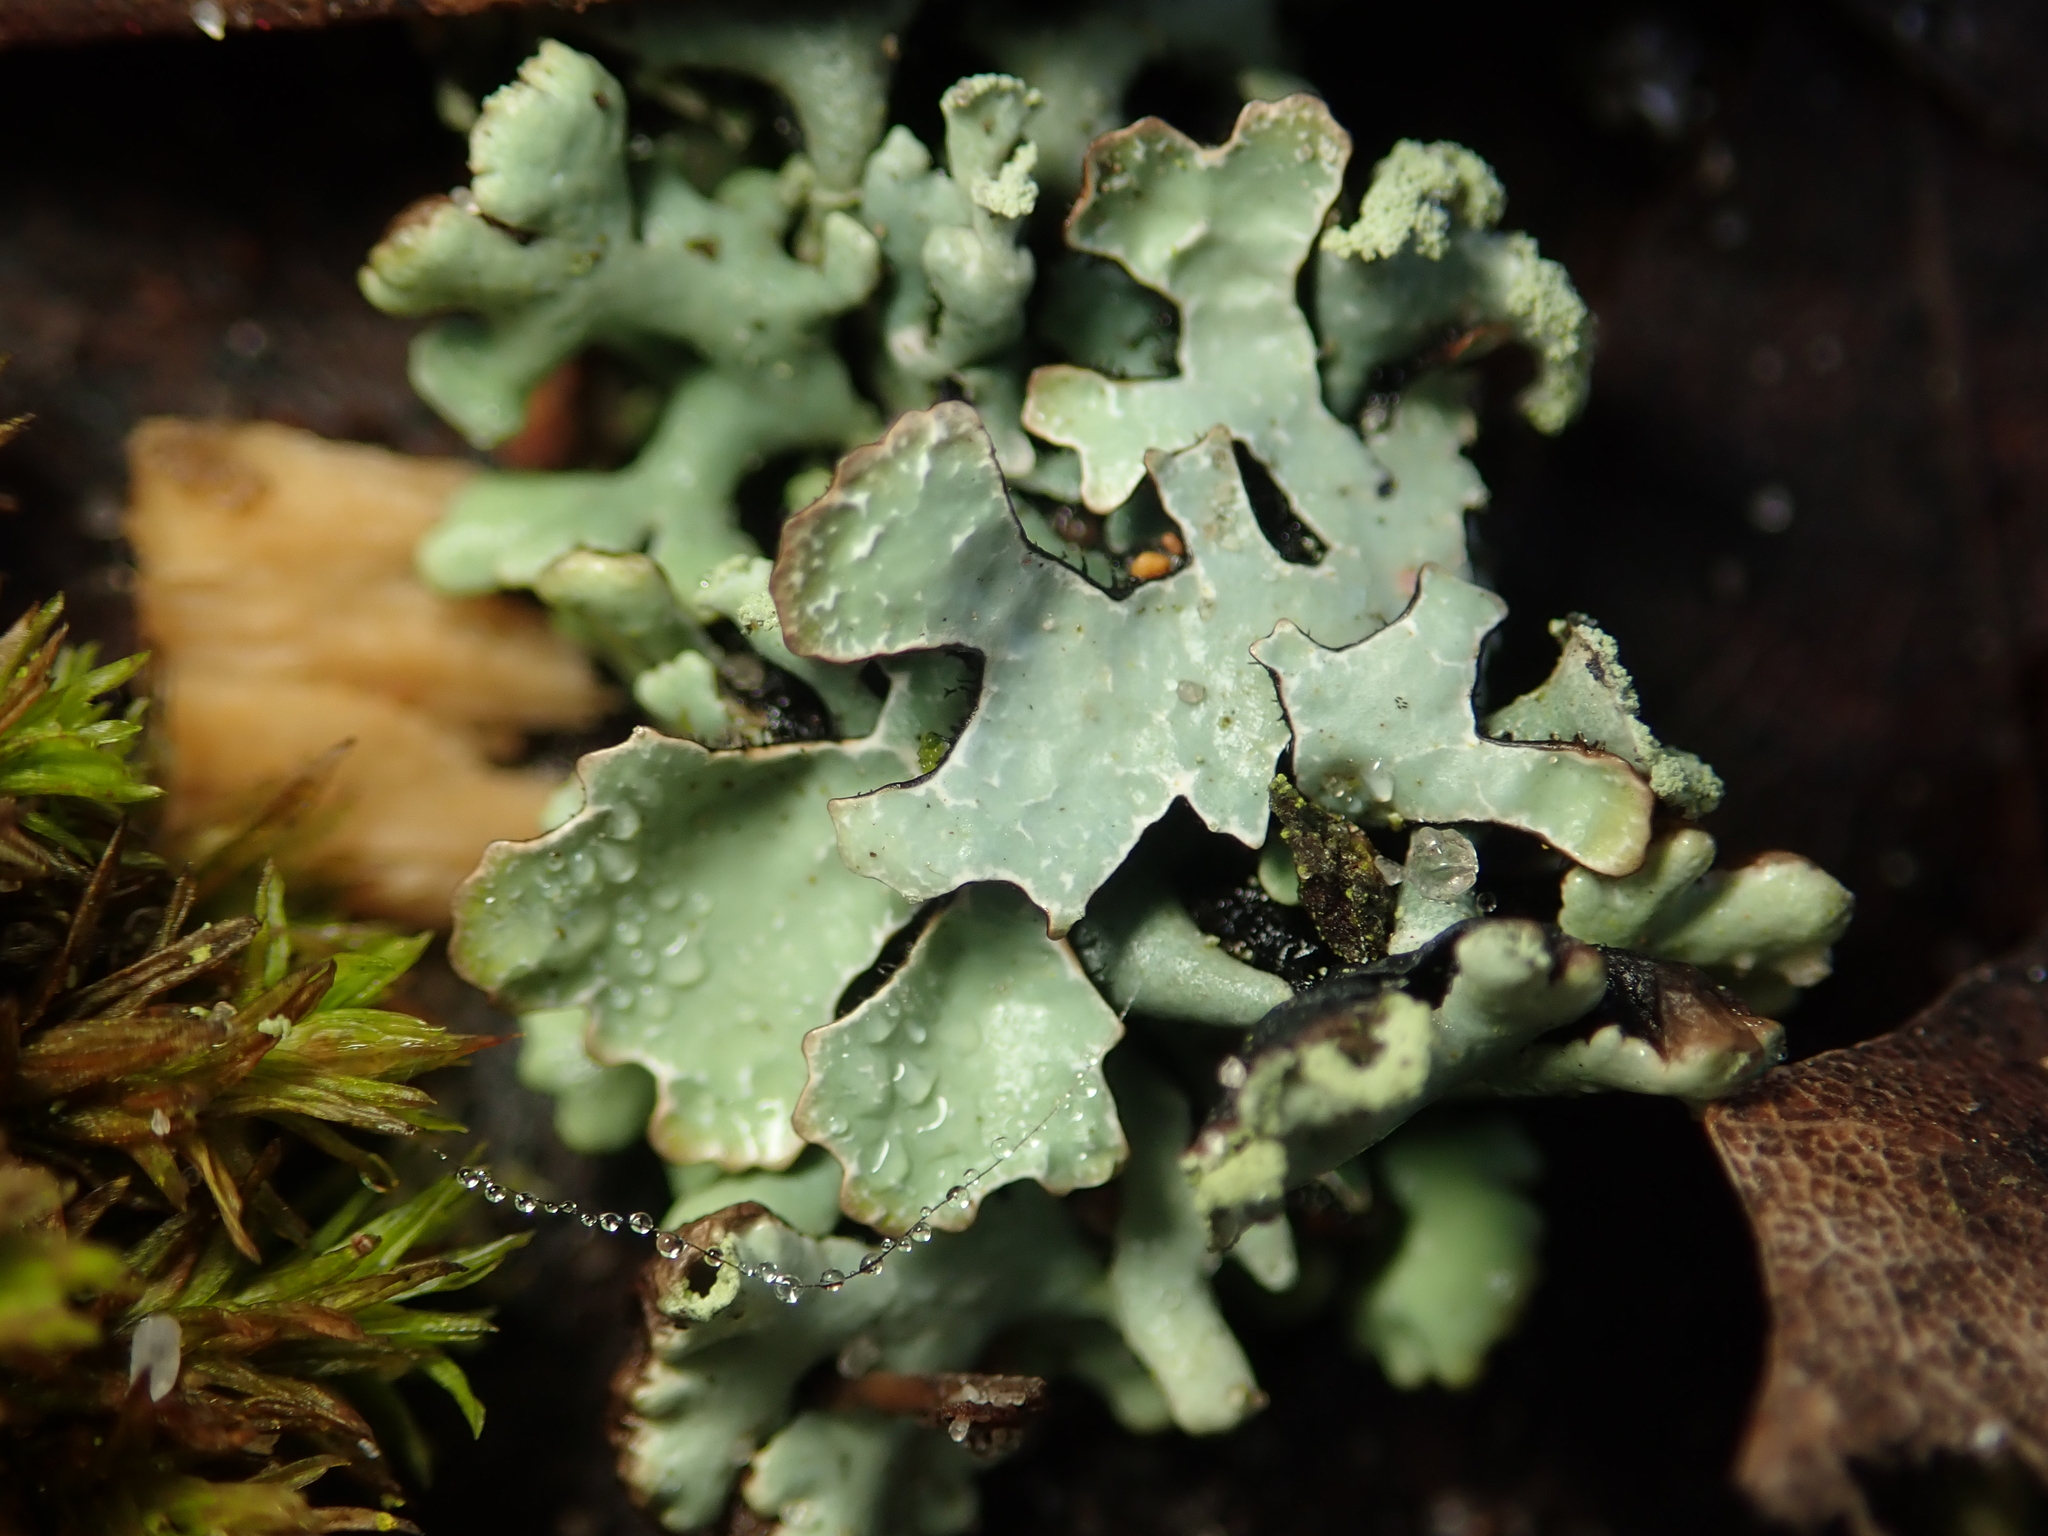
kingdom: Fungi
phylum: Ascomycota
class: Lecanoromycetes
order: Lecanorales
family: Parmeliaceae
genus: Parmelia
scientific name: Parmelia sulcata
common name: Netted shield lichen
